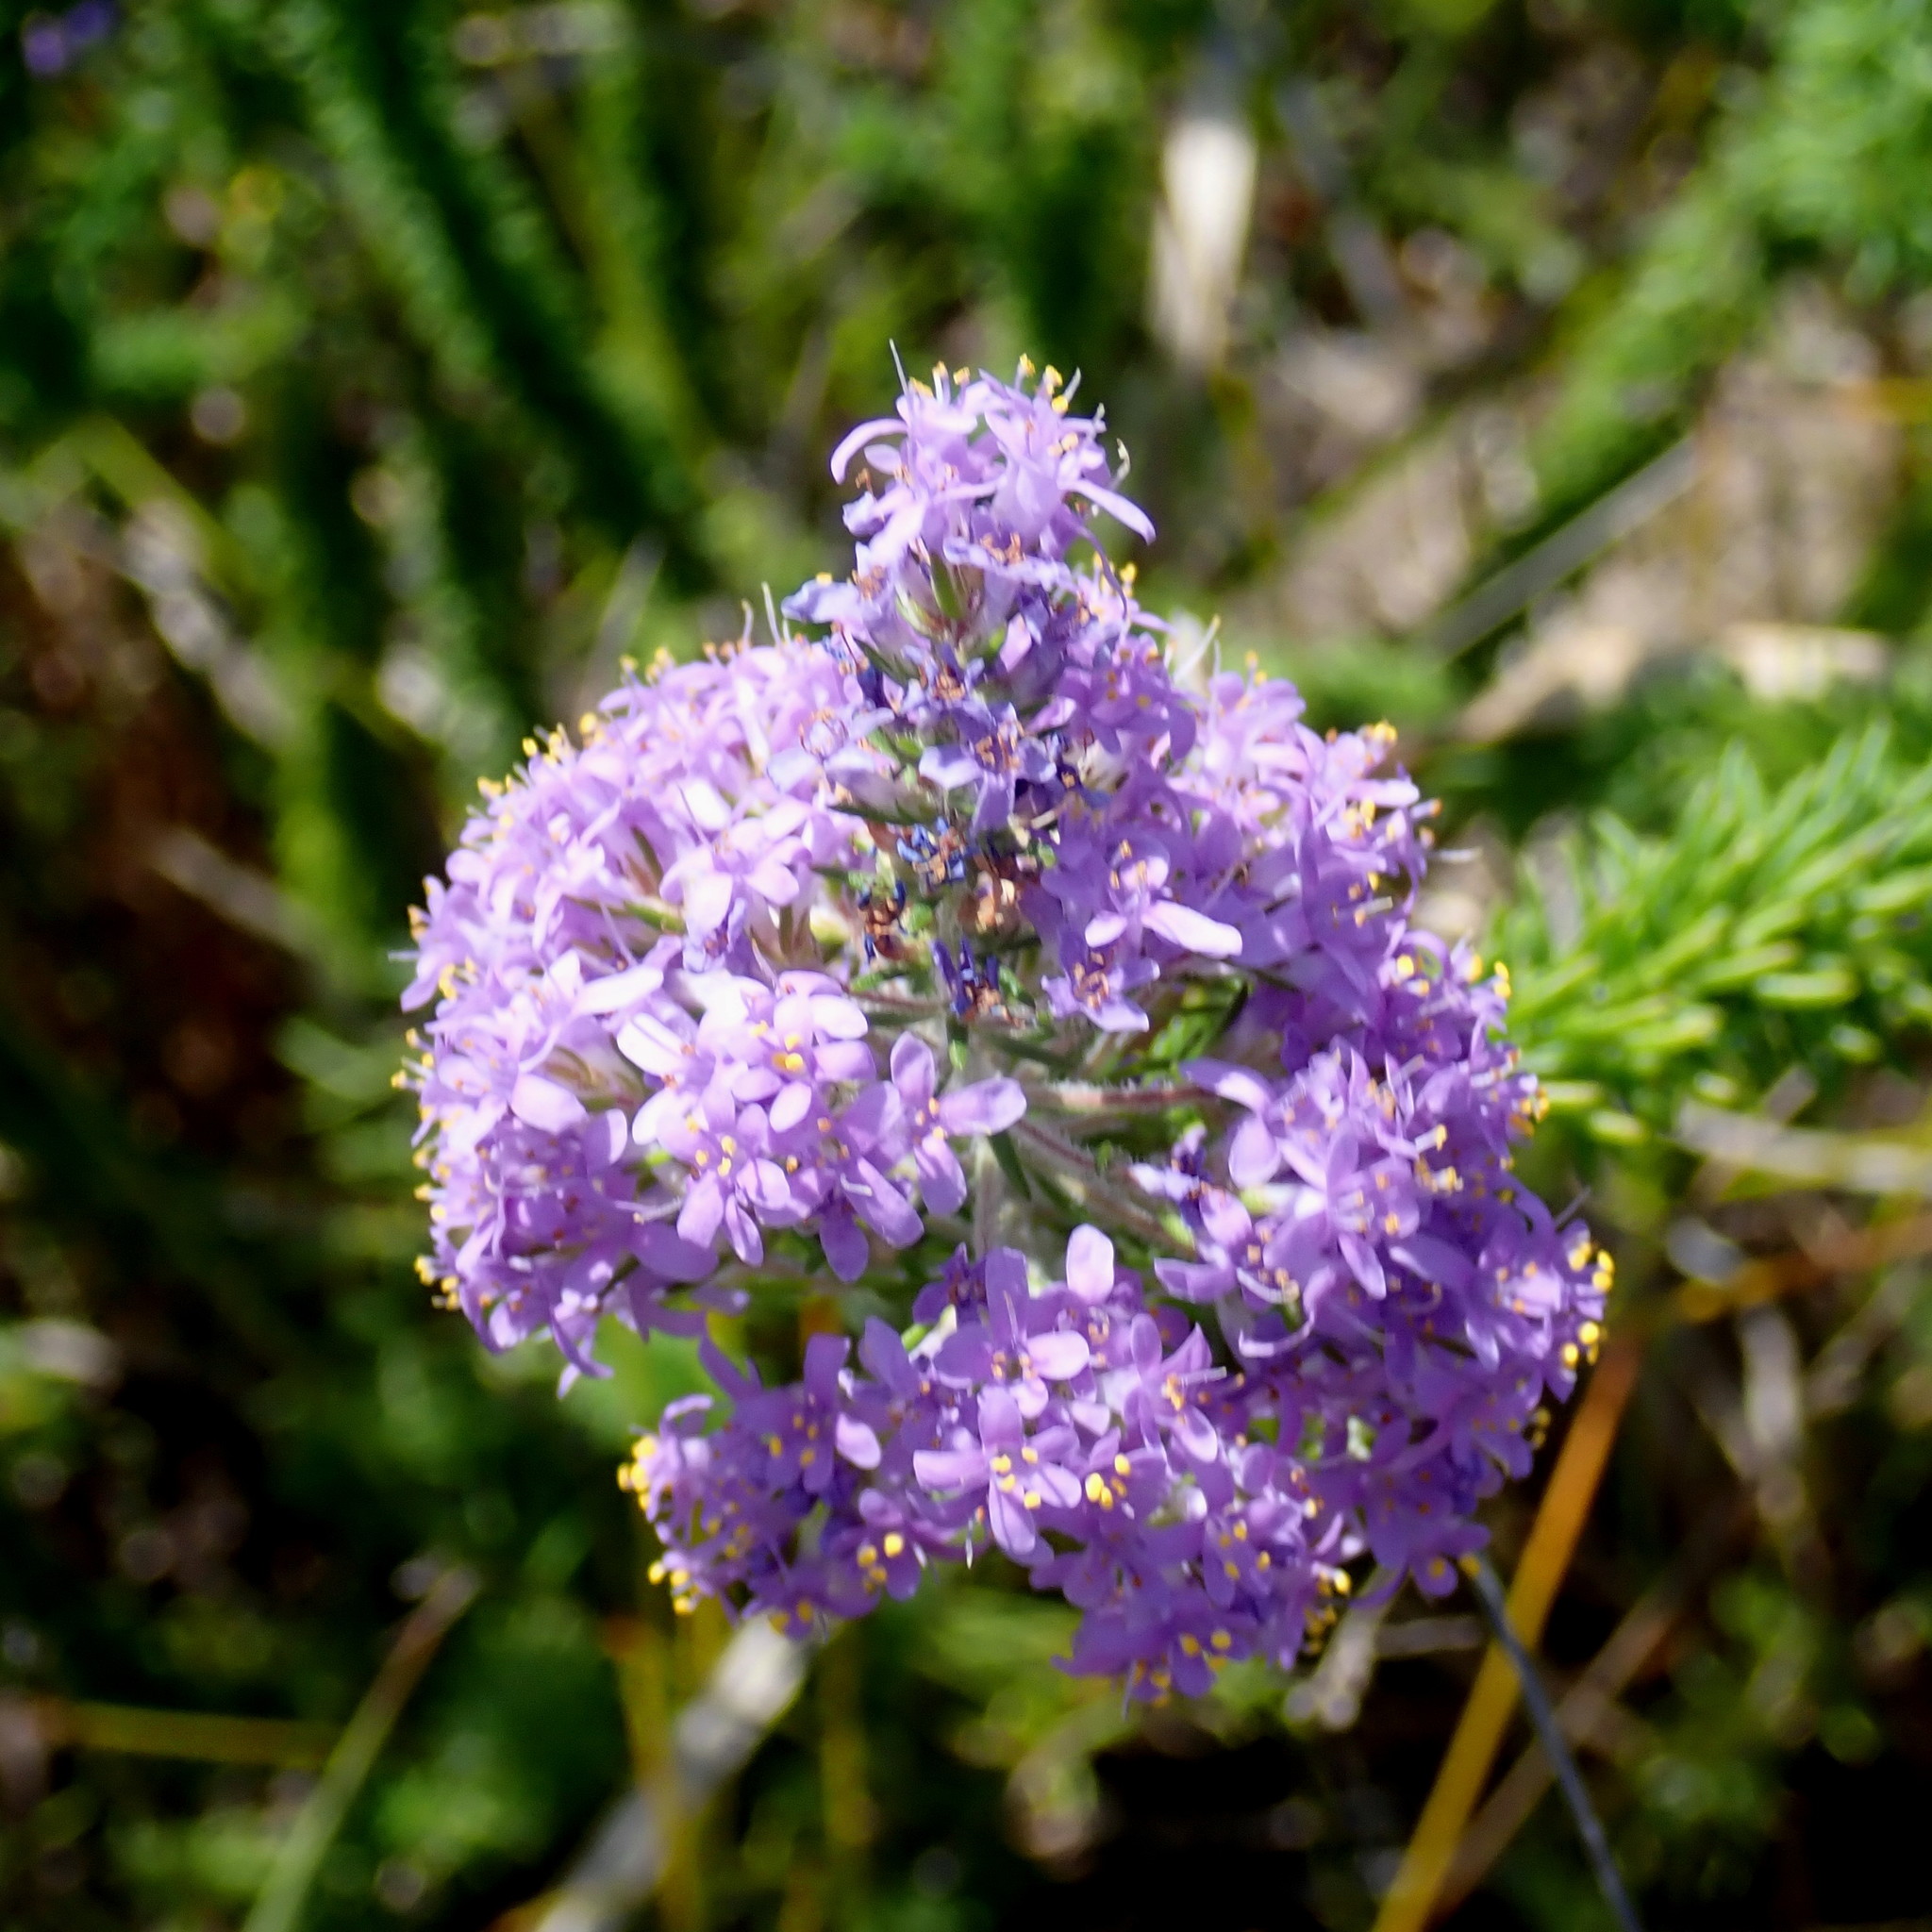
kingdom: Plantae
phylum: Tracheophyta
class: Magnoliopsida
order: Lamiales
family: Scrophulariaceae
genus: Selago
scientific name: Selago burchellii
